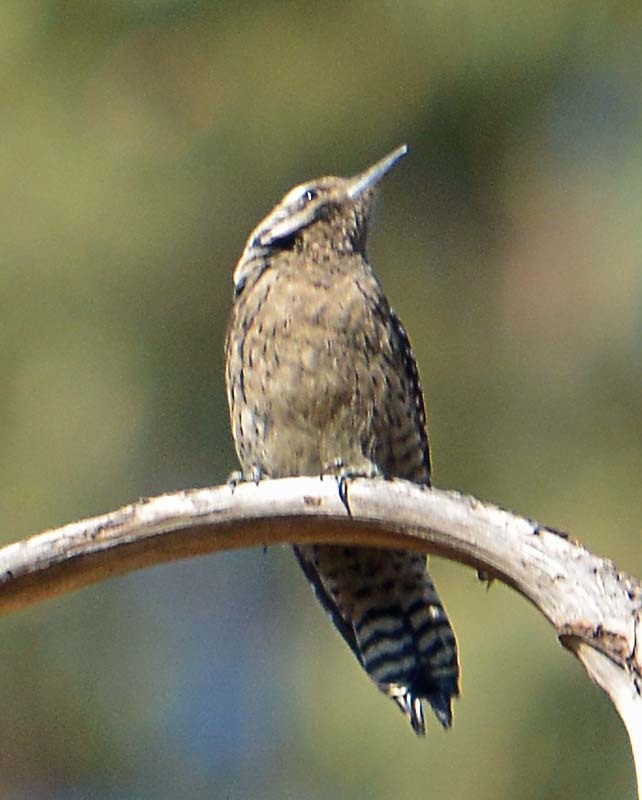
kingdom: Animalia
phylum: Chordata
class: Aves
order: Piciformes
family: Picidae
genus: Dryobates
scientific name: Dryobates scalaris
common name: Ladder-backed woodpecker
